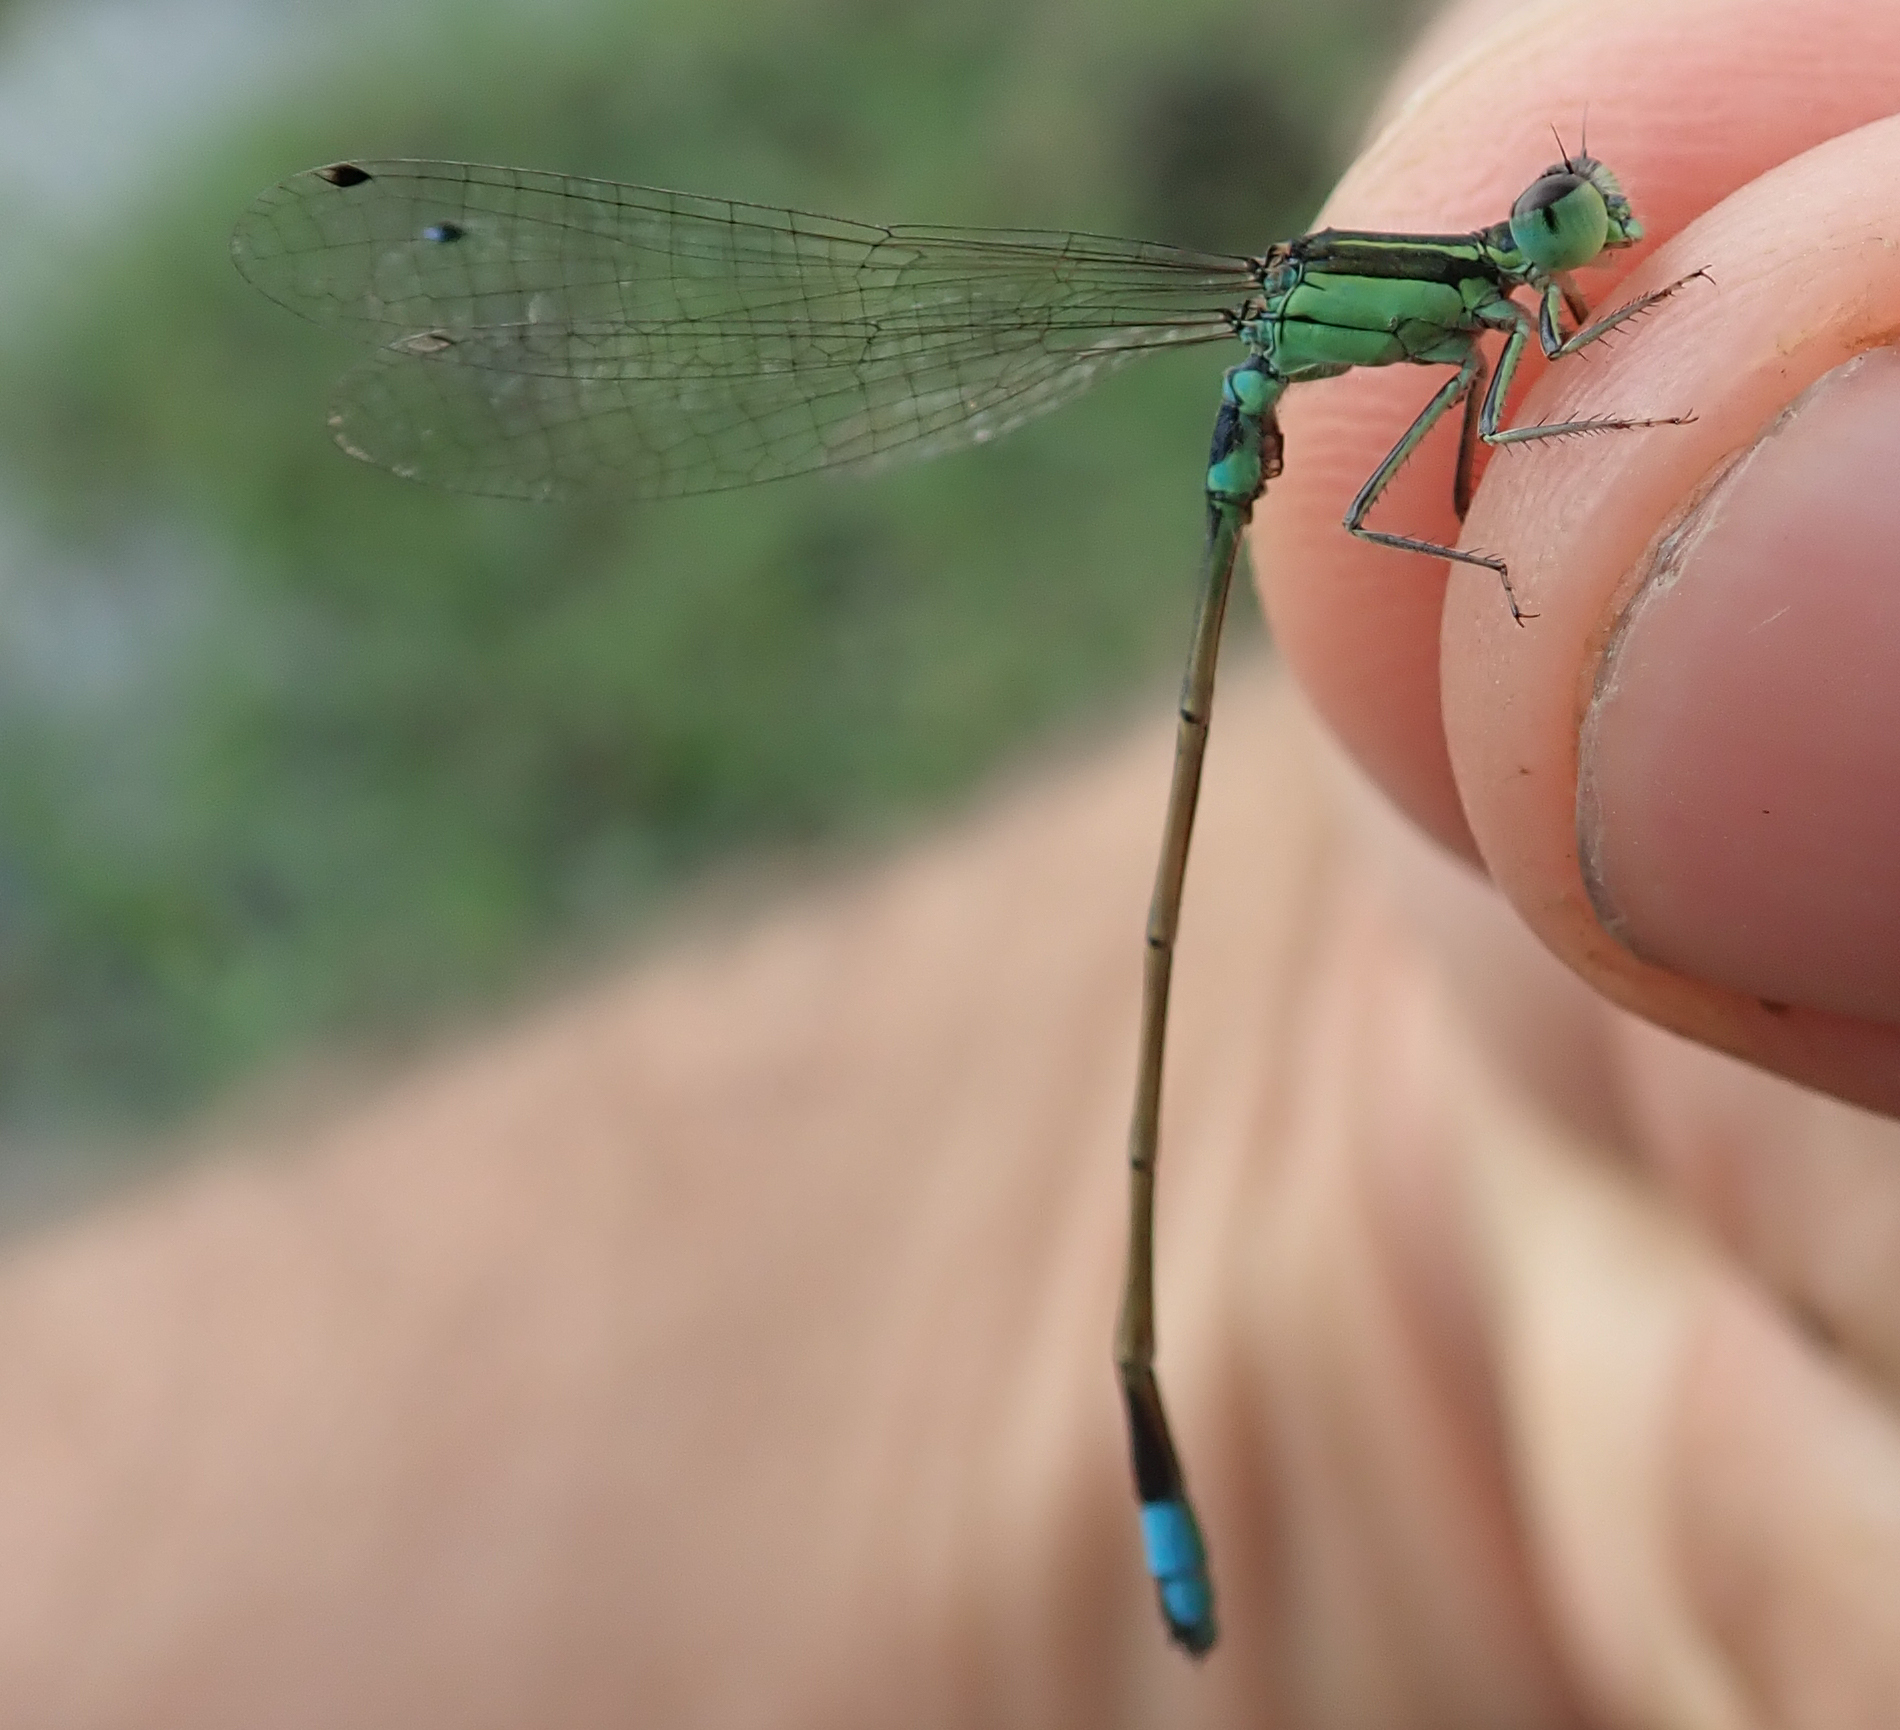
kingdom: Animalia
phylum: Arthropoda
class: Insecta
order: Odonata
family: Coenagrionidae
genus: Ischnura
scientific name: Ischnura senegalensis
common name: Tropical bluetail
